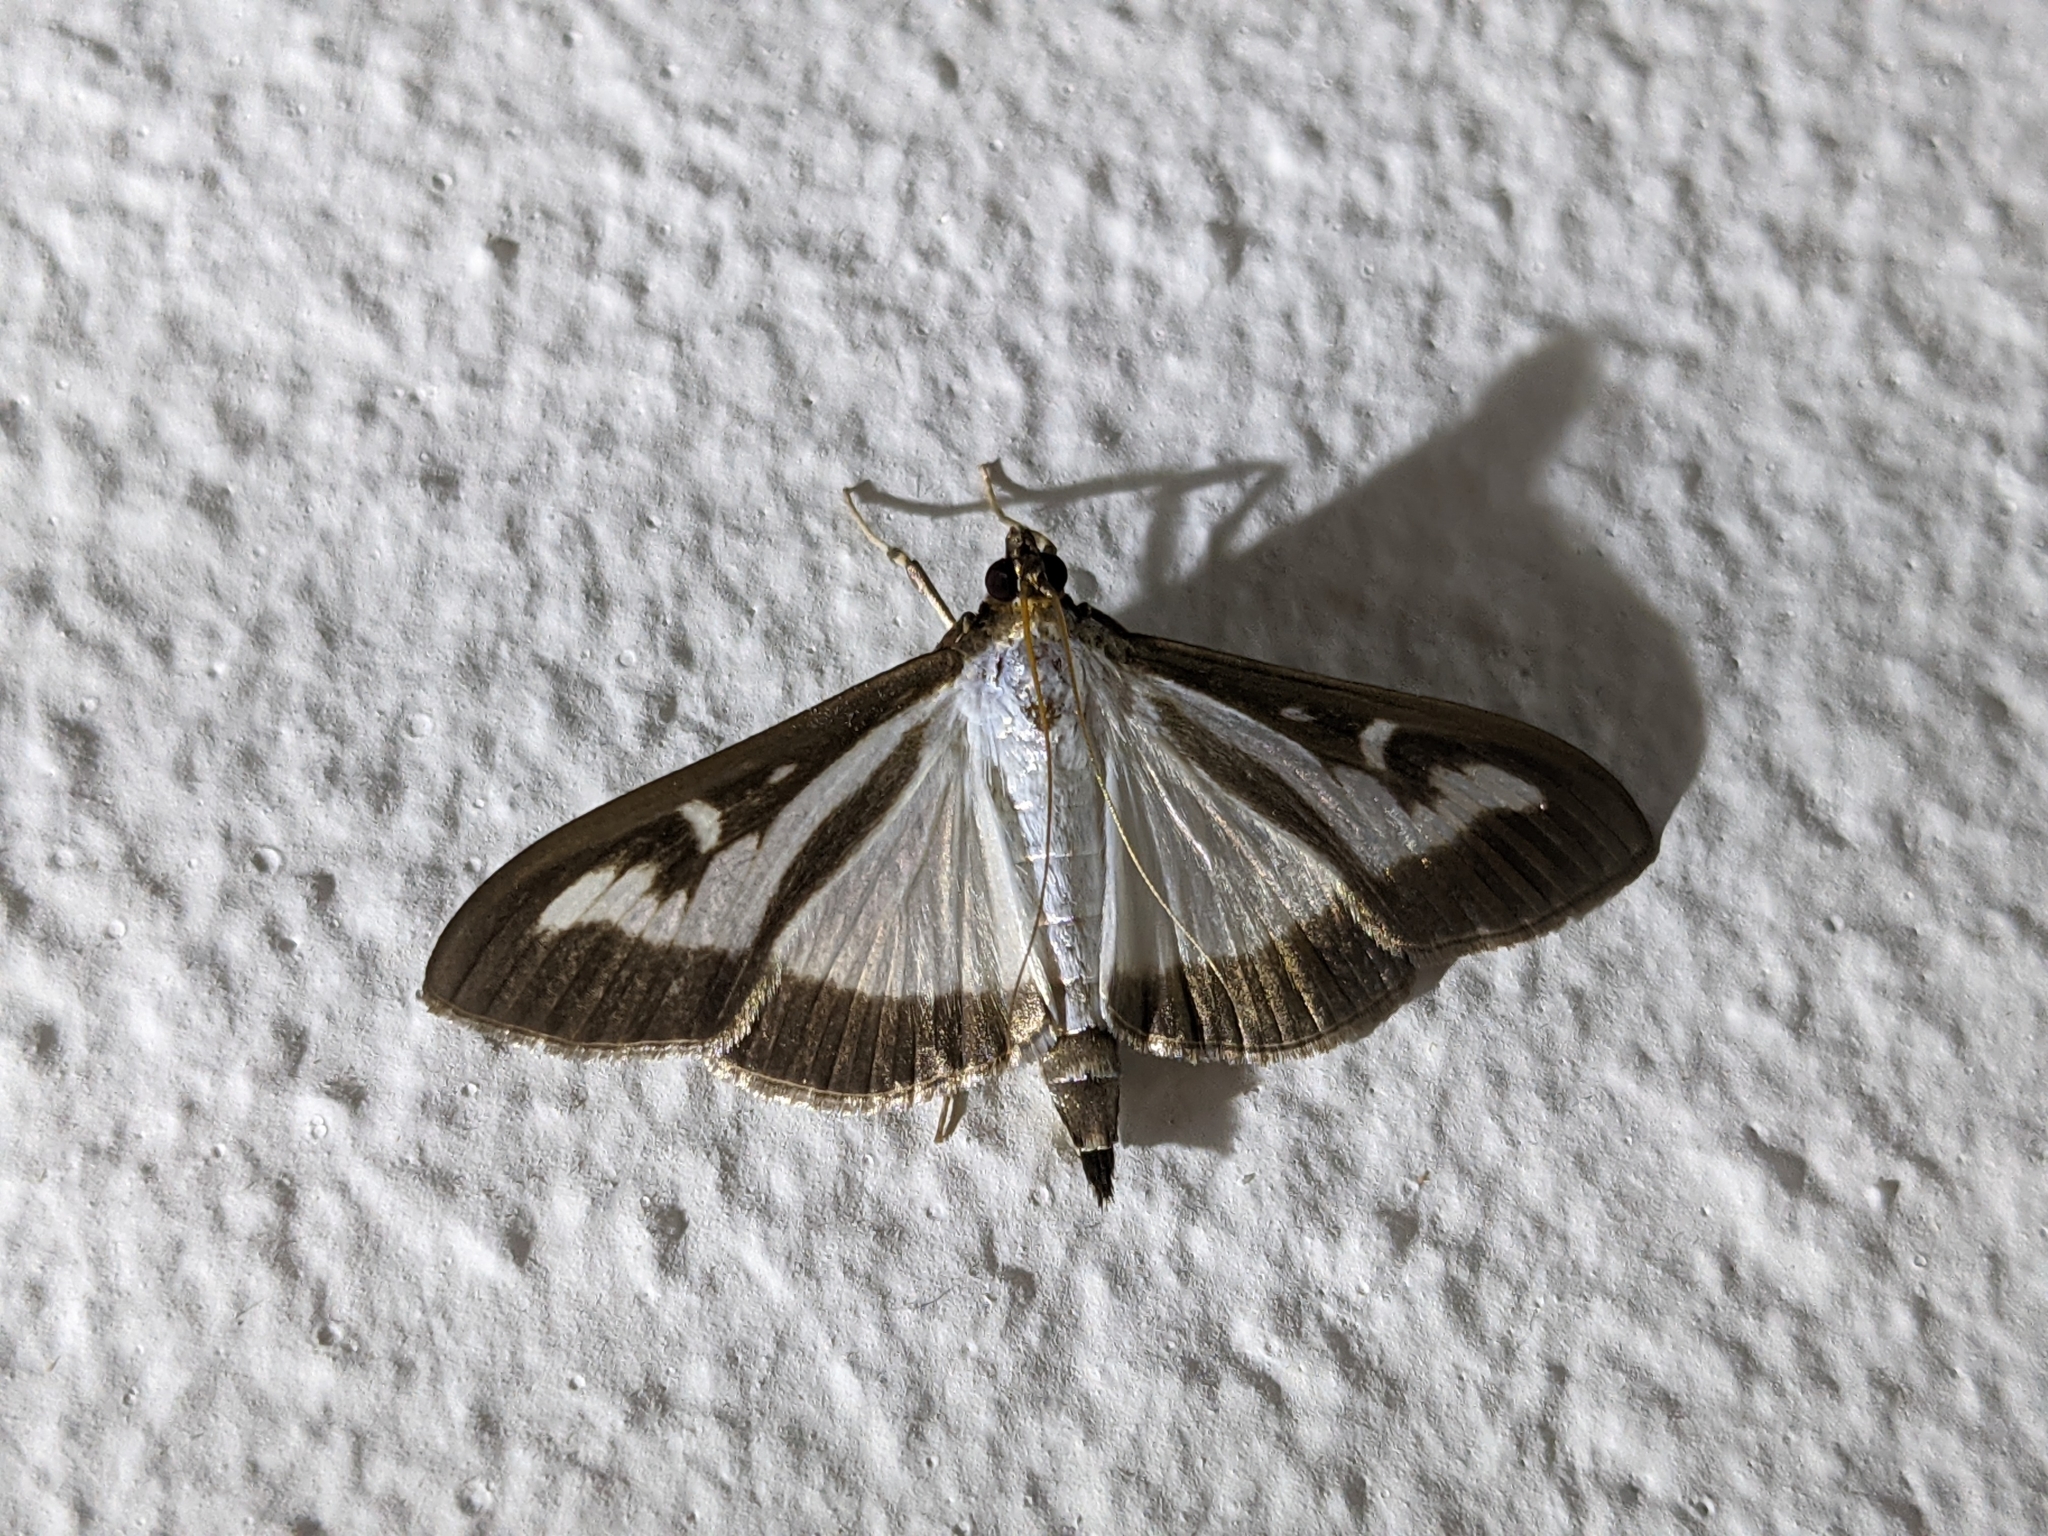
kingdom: Animalia
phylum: Arthropoda
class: Insecta
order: Lepidoptera
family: Crambidae
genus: Cydalima
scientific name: Cydalima perspectalis
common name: Box tree moth
